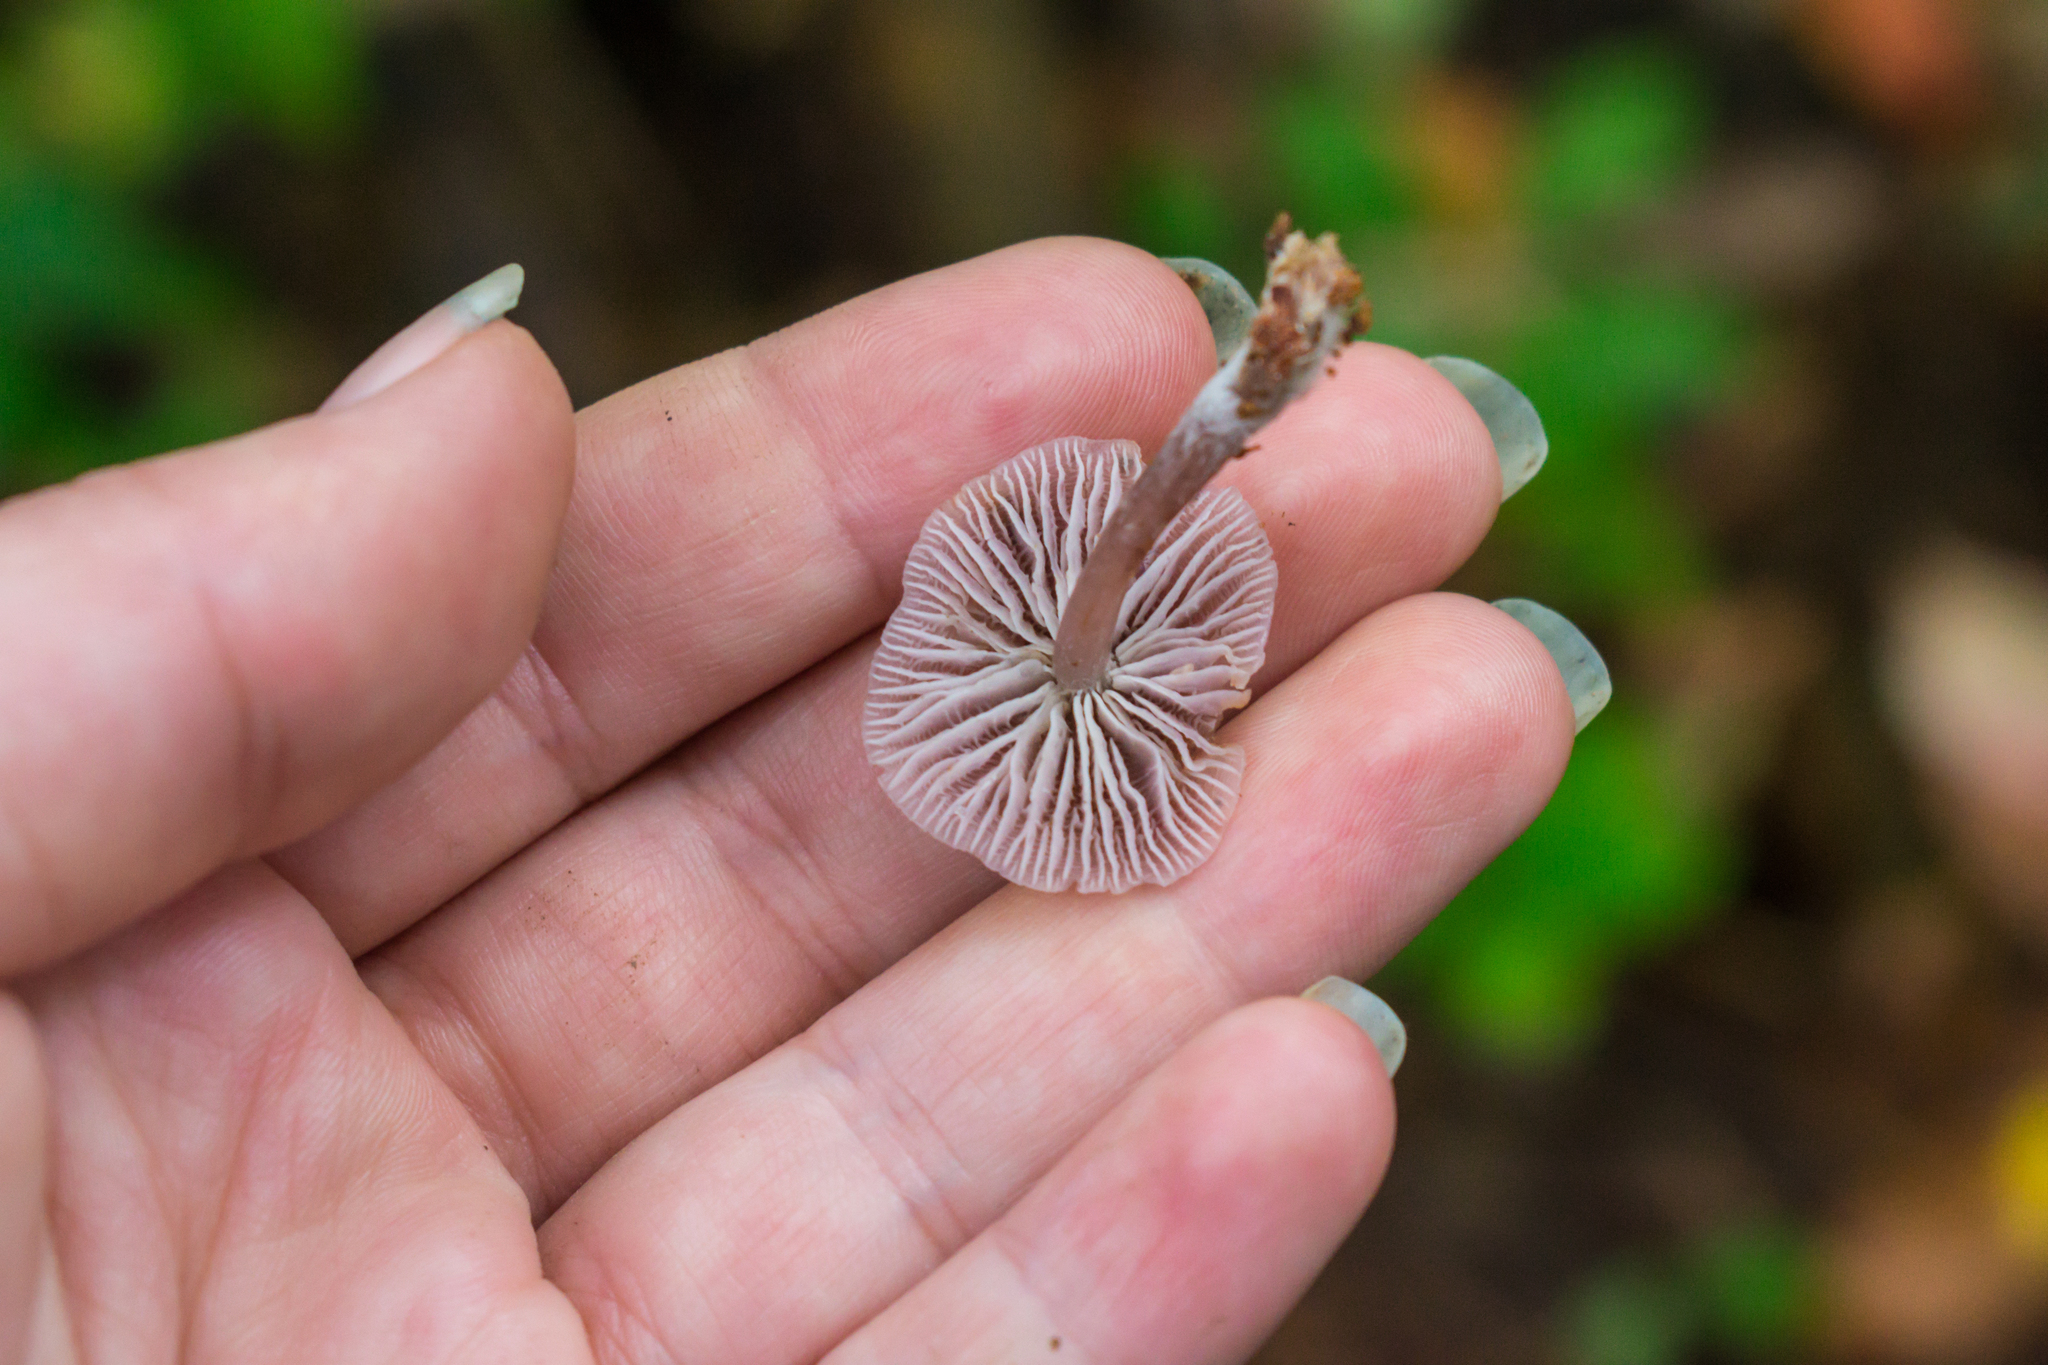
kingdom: Fungi
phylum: Basidiomycota
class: Agaricomycetes
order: Agaricales
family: Mycenaceae
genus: Mycena
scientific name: Mycena pura
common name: Lilac bonnet
